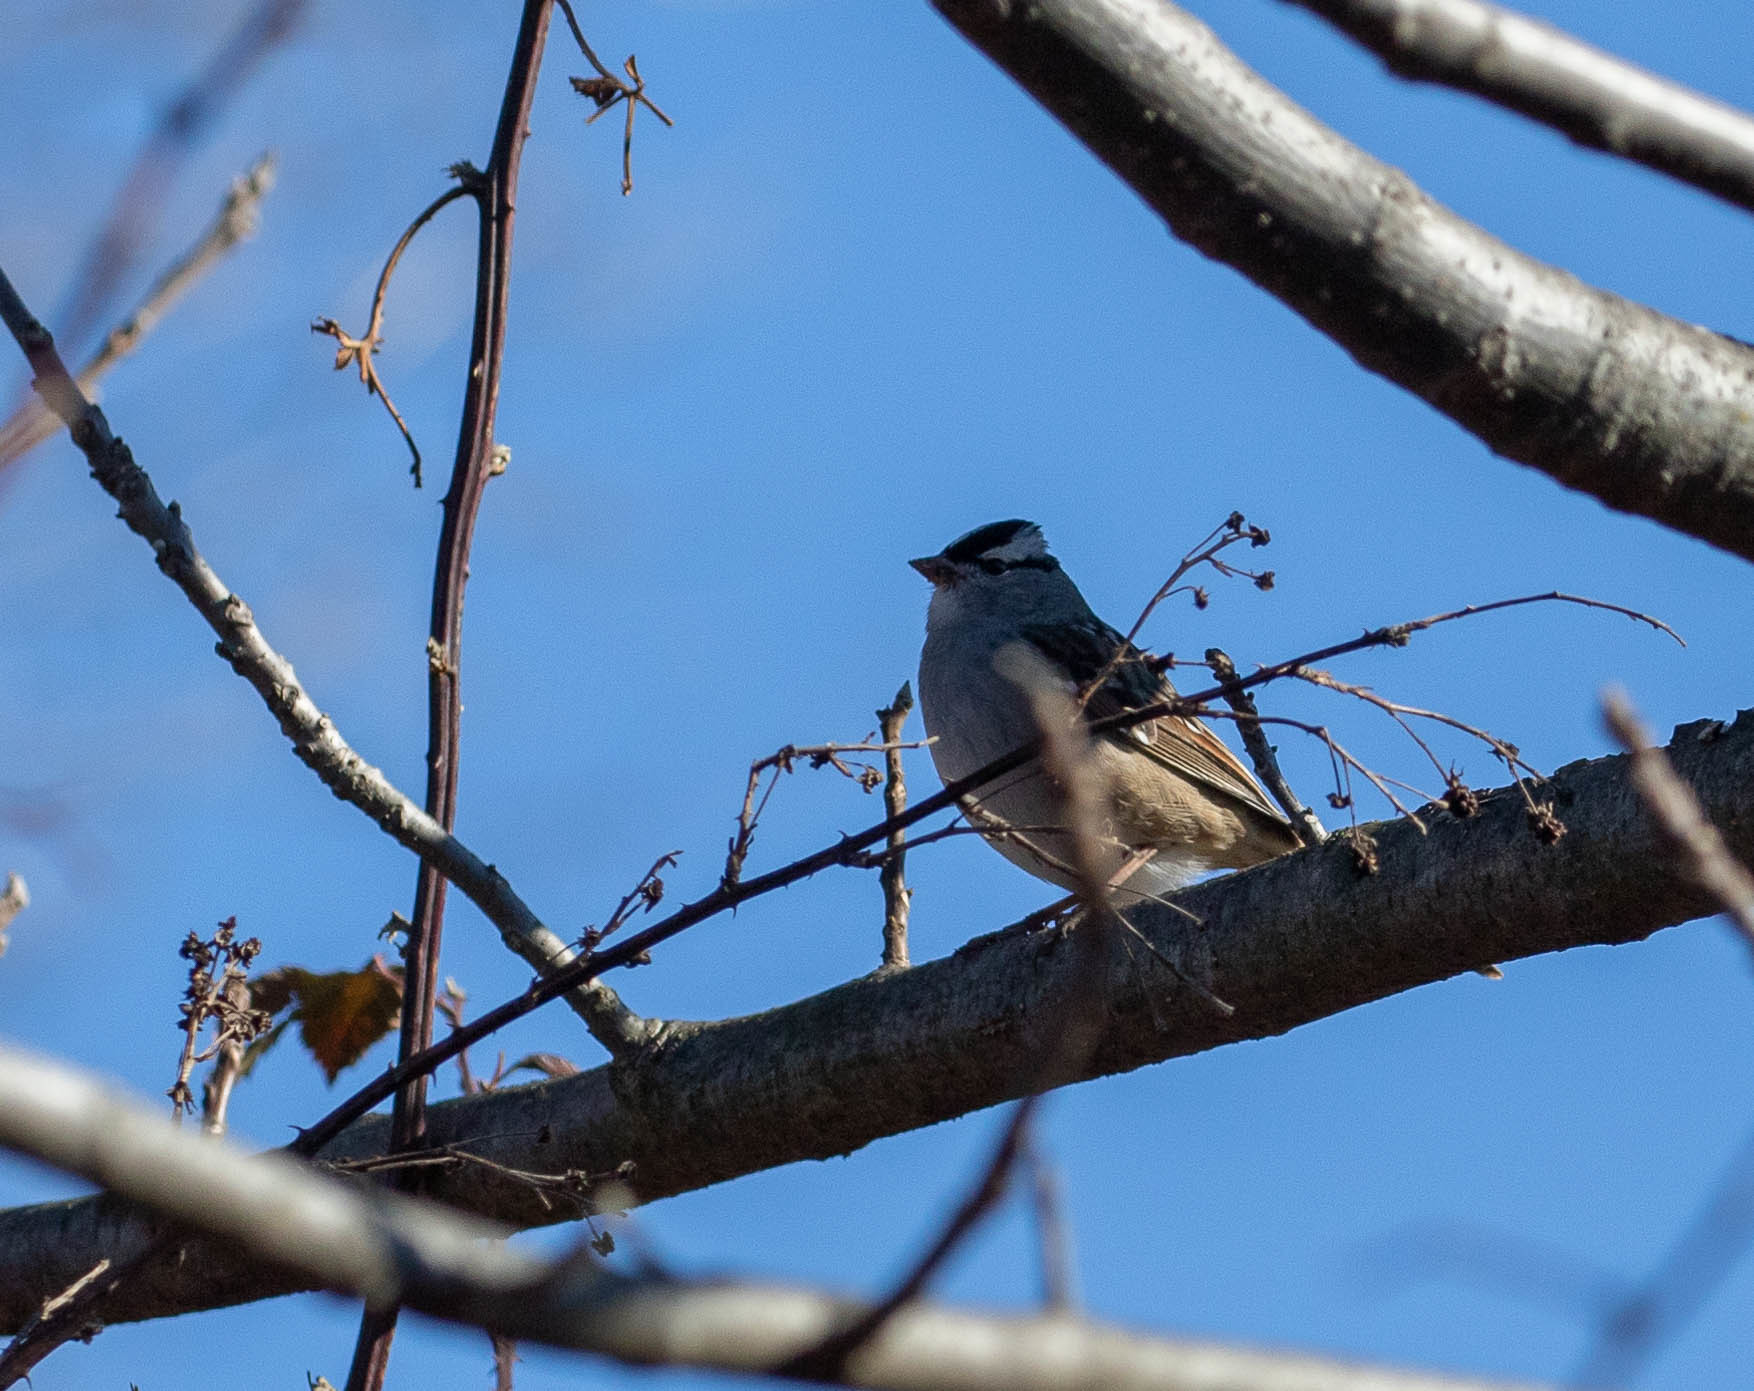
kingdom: Animalia
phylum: Chordata
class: Aves
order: Passeriformes
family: Passerellidae
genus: Zonotrichia
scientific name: Zonotrichia leucophrys
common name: White-crowned sparrow
